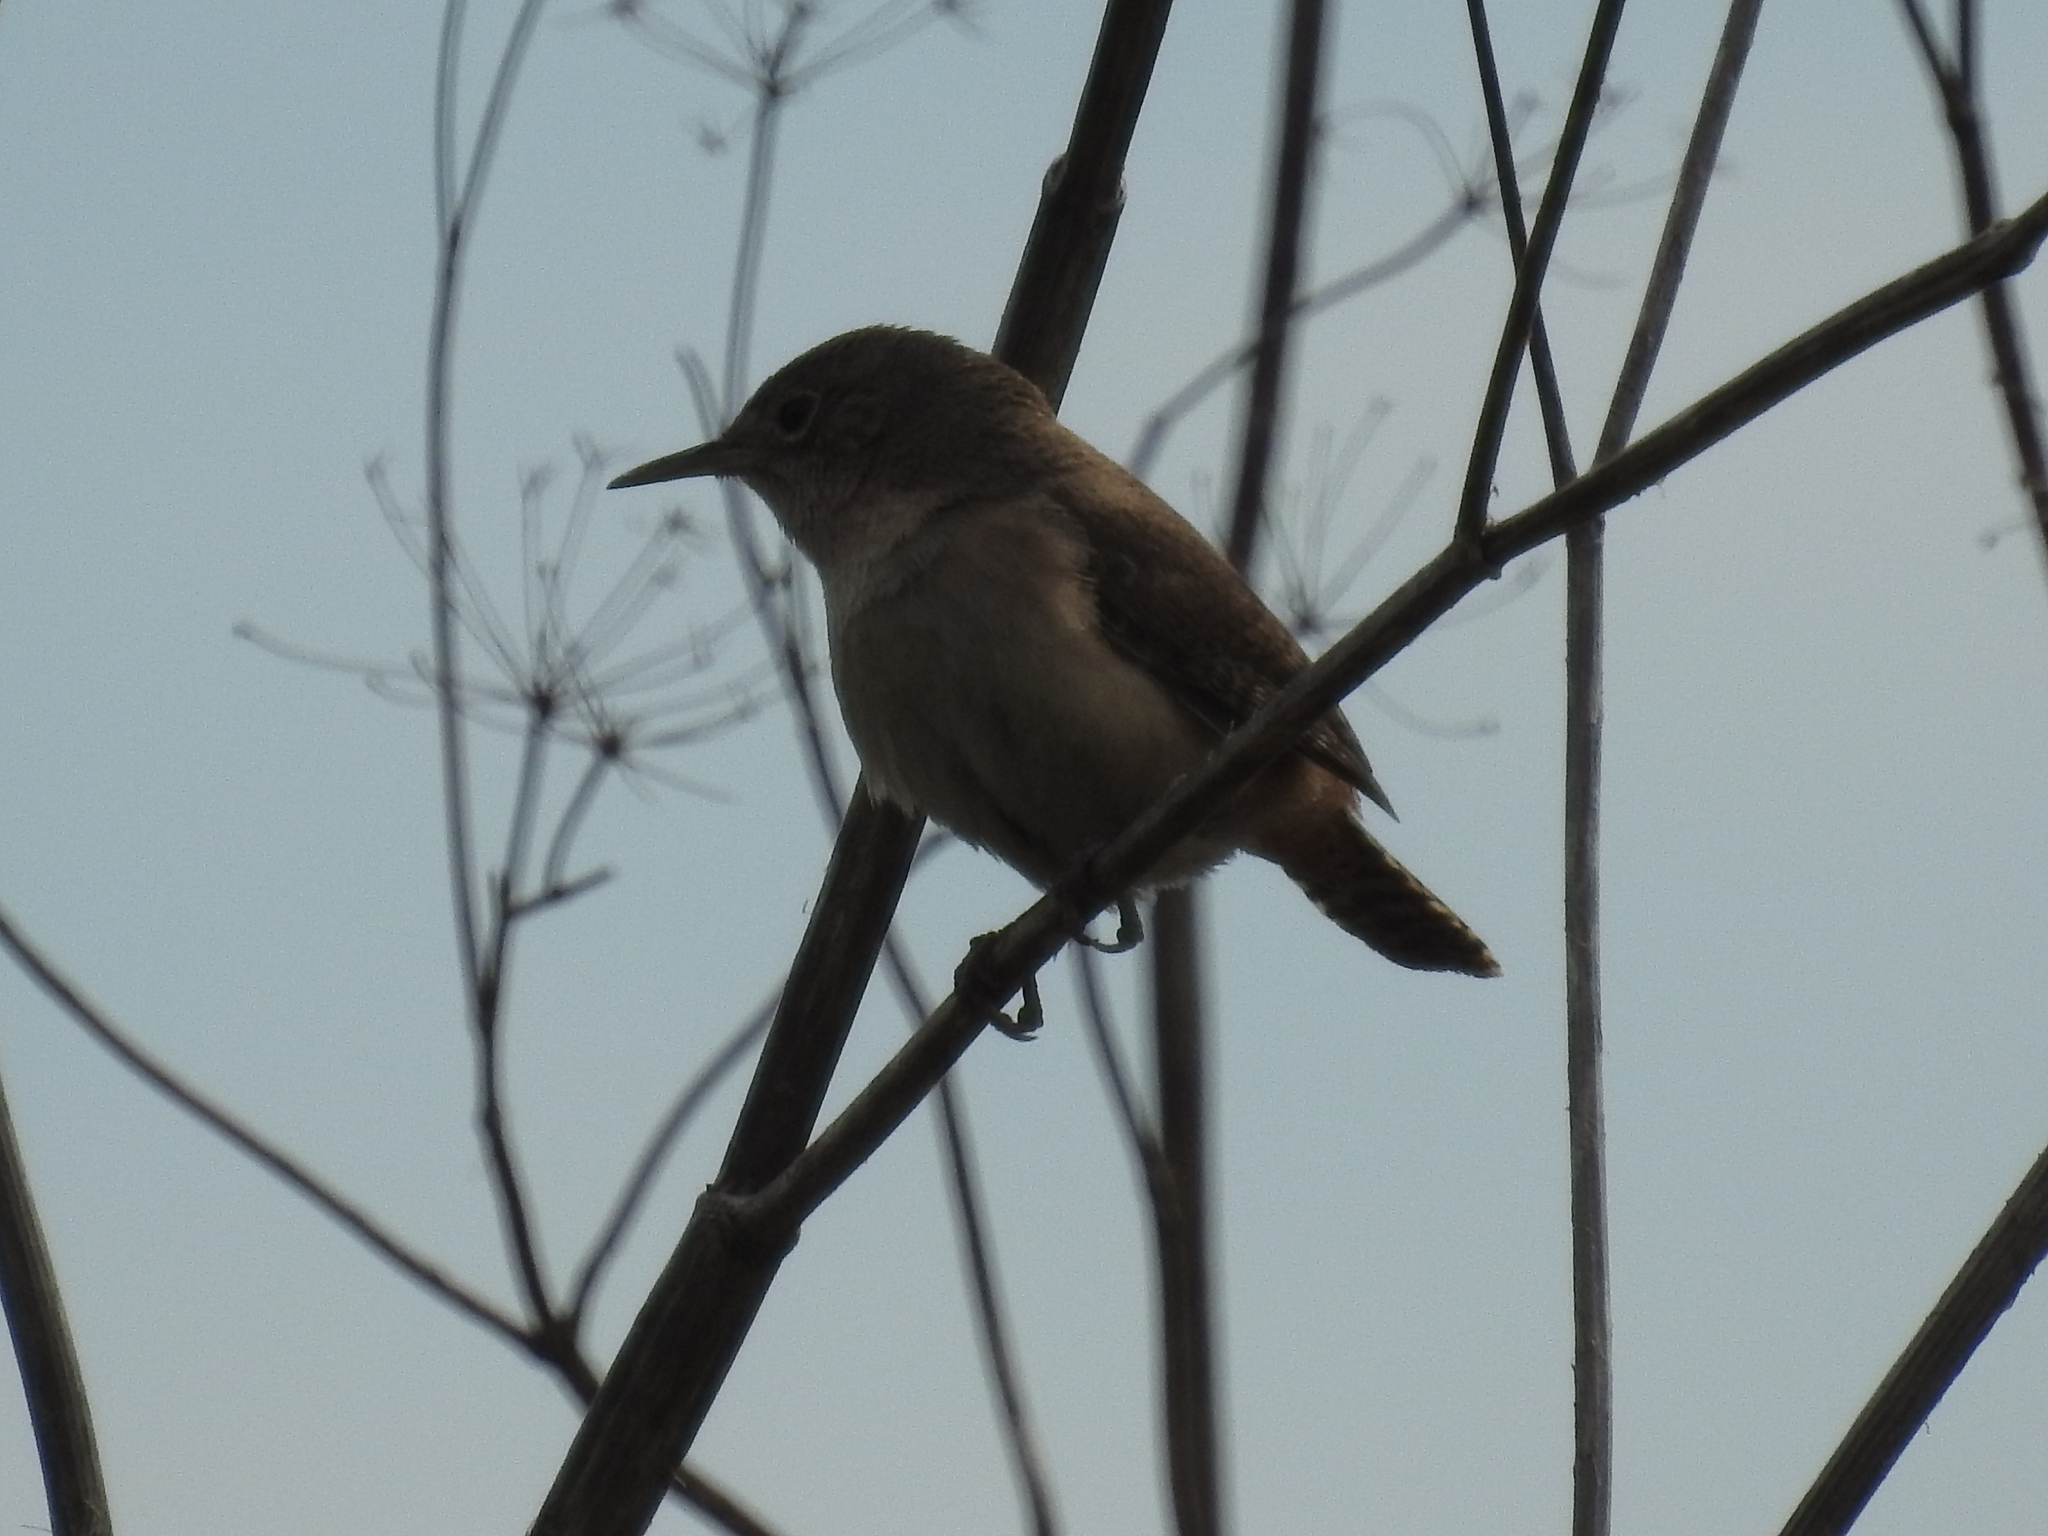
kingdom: Animalia
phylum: Chordata
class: Aves
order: Passeriformes
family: Troglodytidae
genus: Troglodytes
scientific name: Troglodytes aedon
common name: House wren
